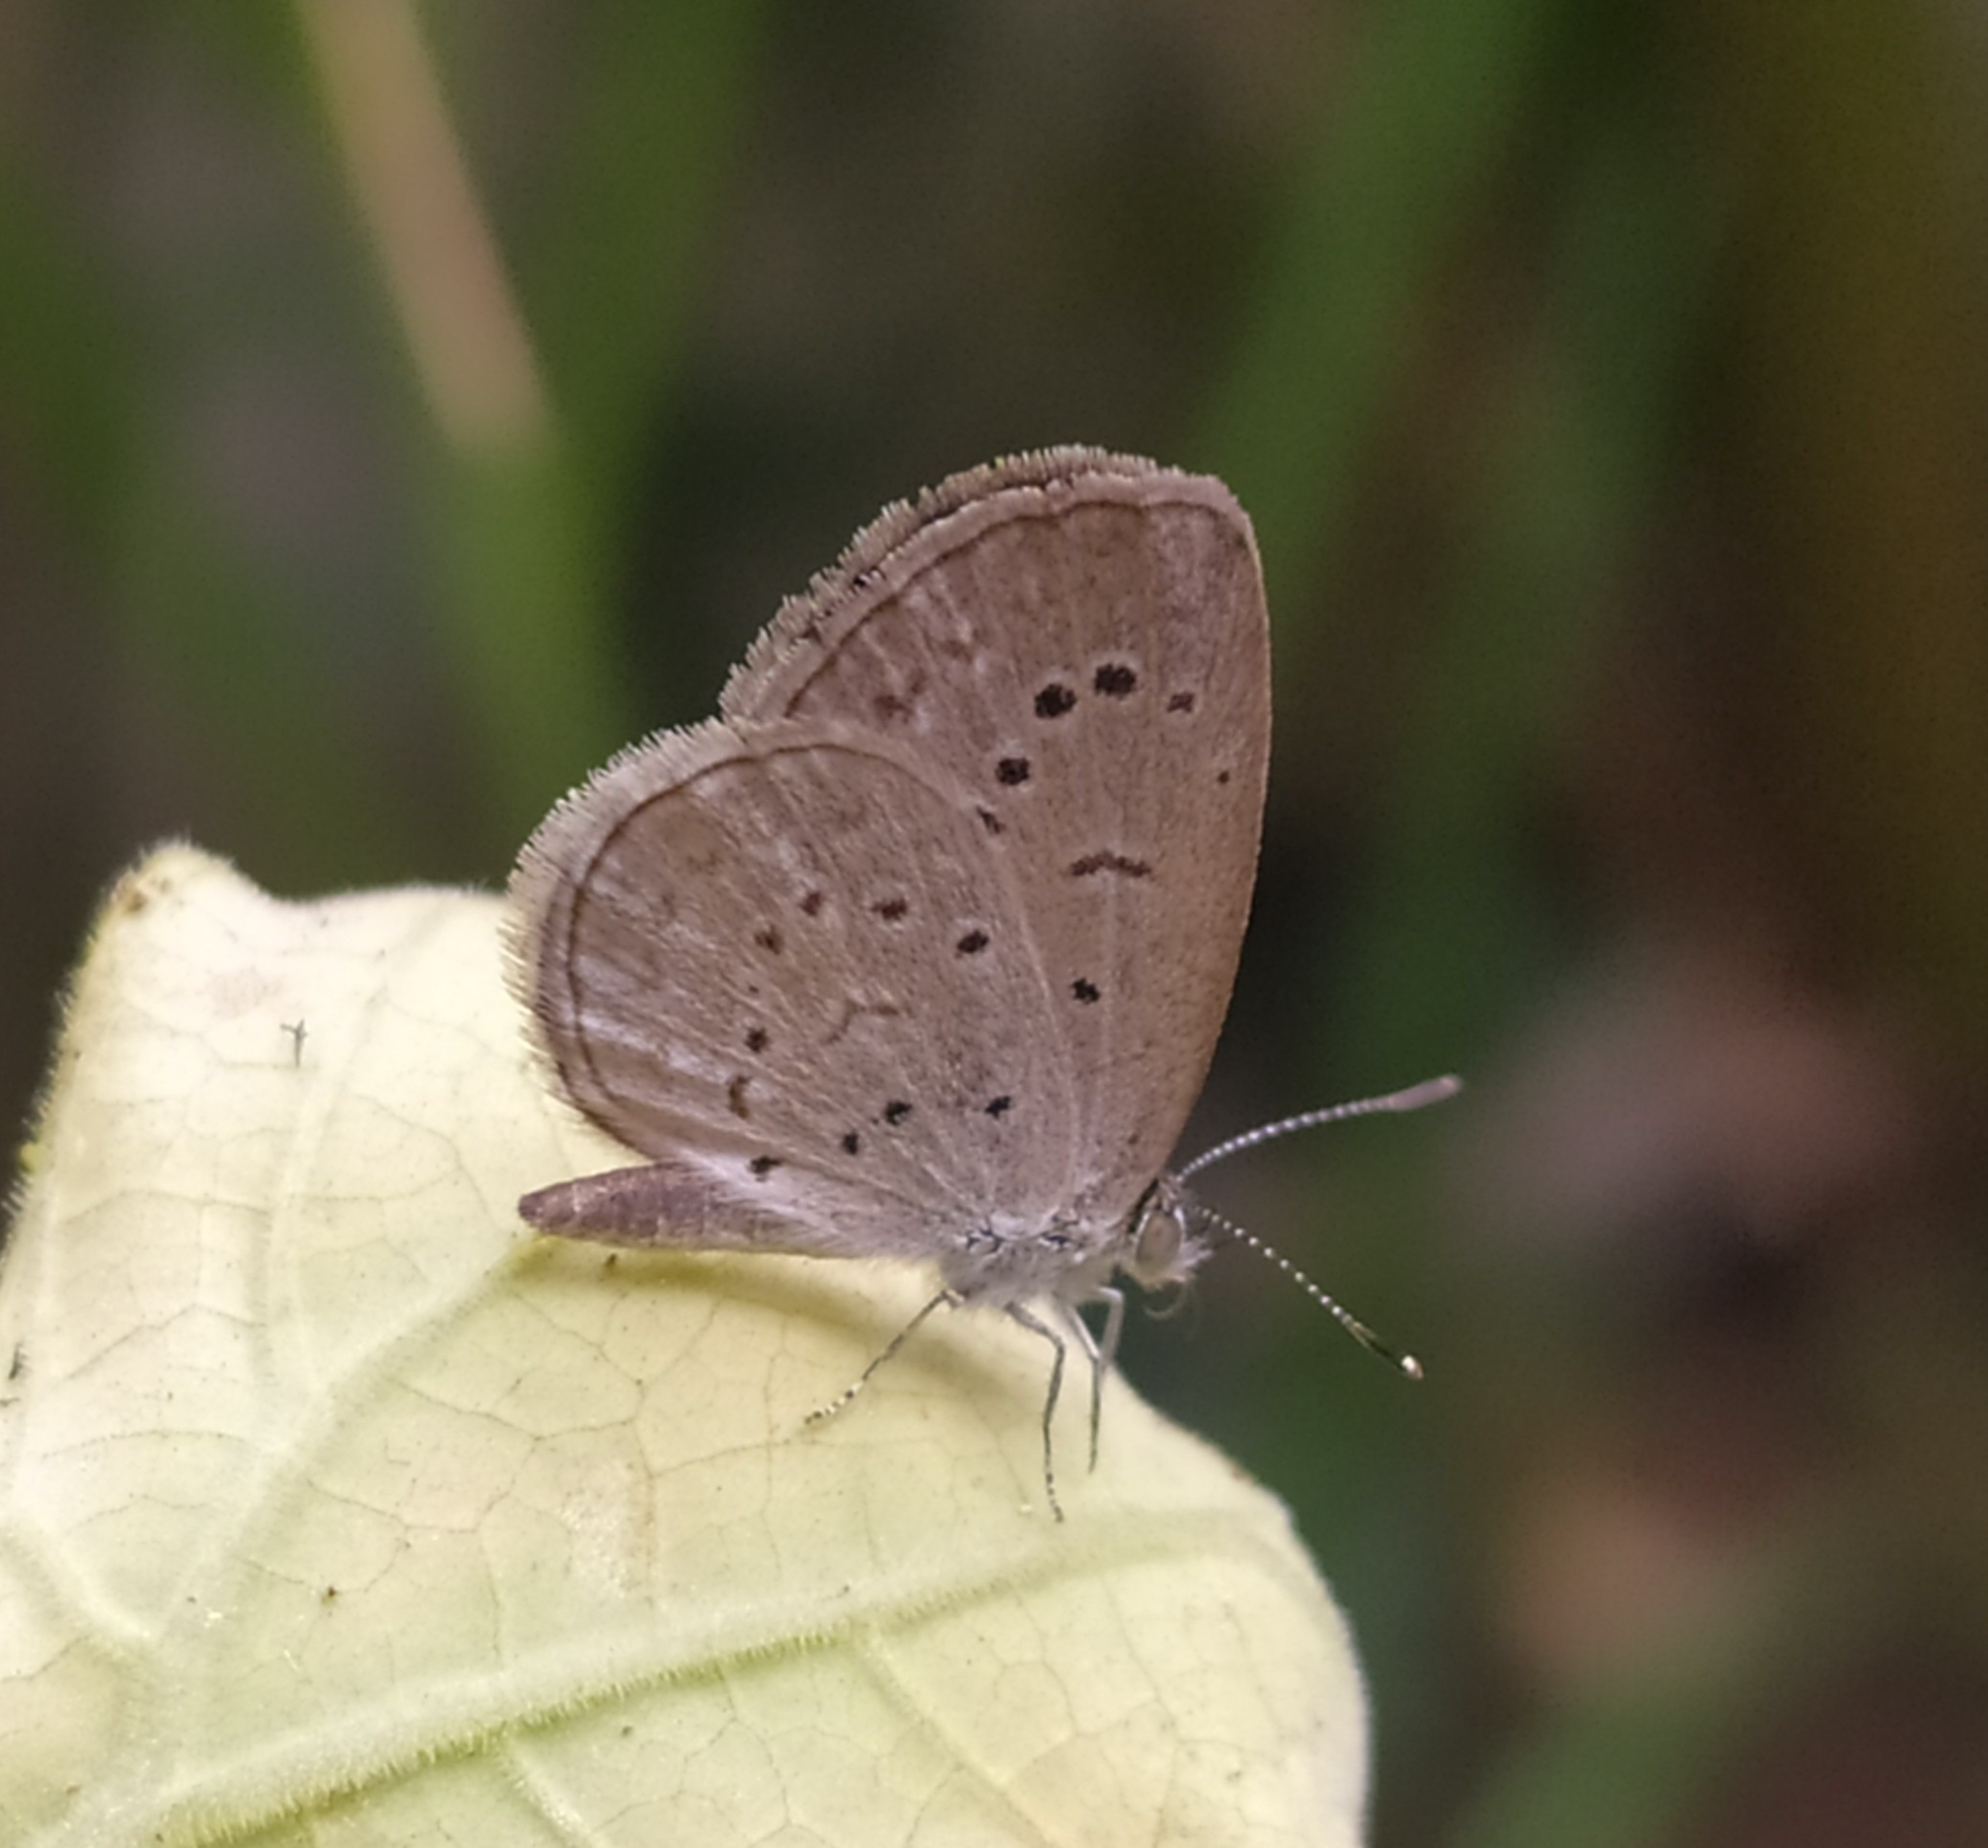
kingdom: Animalia
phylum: Arthropoda
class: Insecta
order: Lepidoptera
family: Lycaenidae
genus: Pseudozizeeria
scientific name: Pseudozizeeria maha
